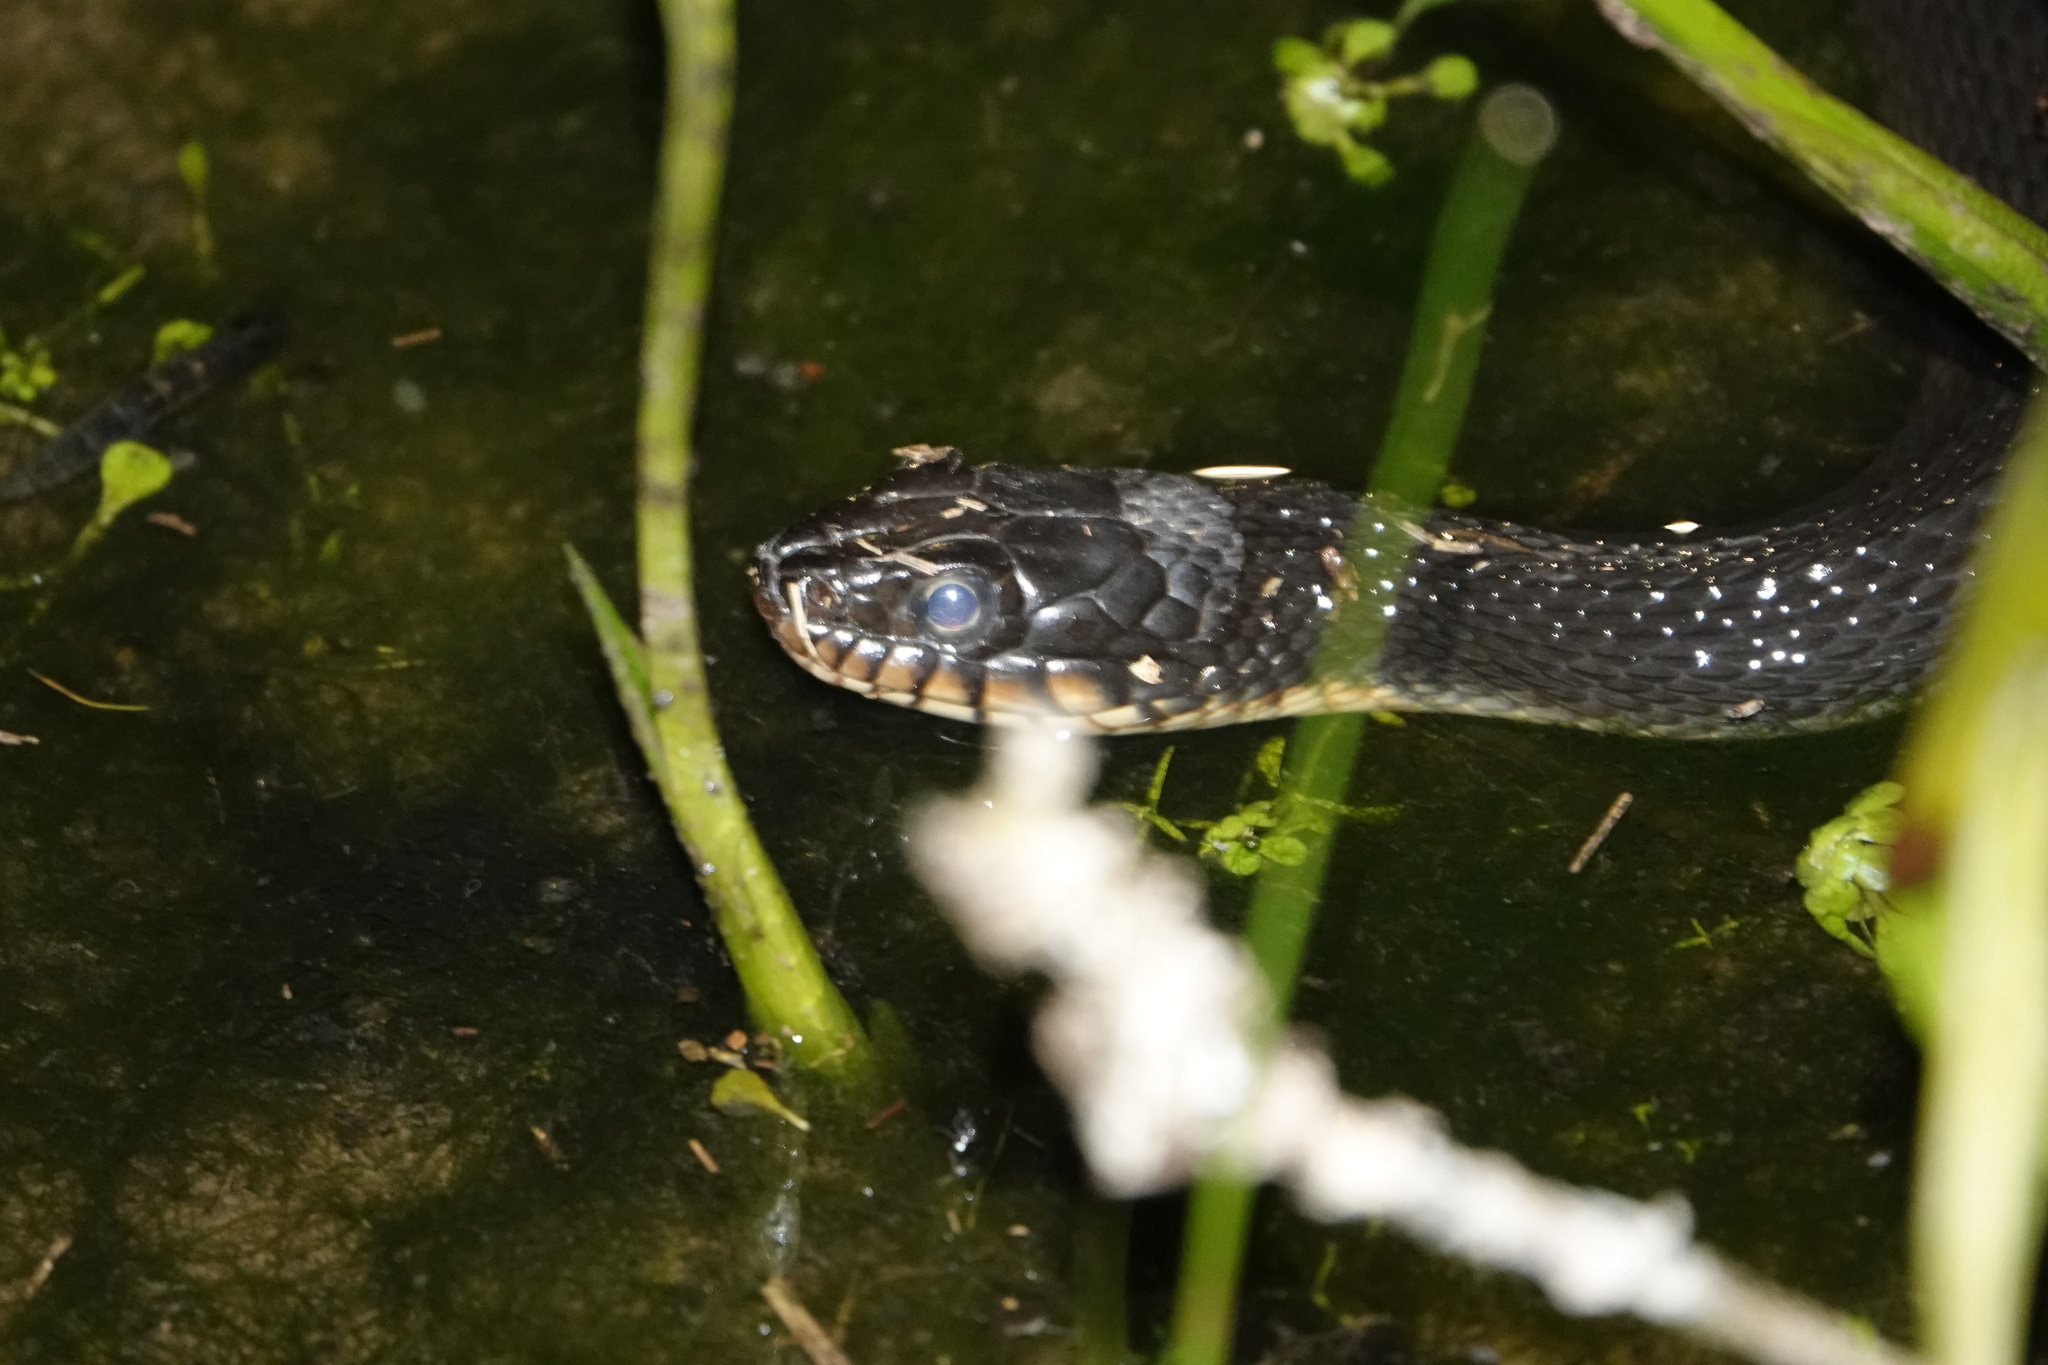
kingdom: Animalia
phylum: Chordata
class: Squamata
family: Colubridae
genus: Nerodia
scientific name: Nerodia erythrogaster
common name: Plainbelly water snake
